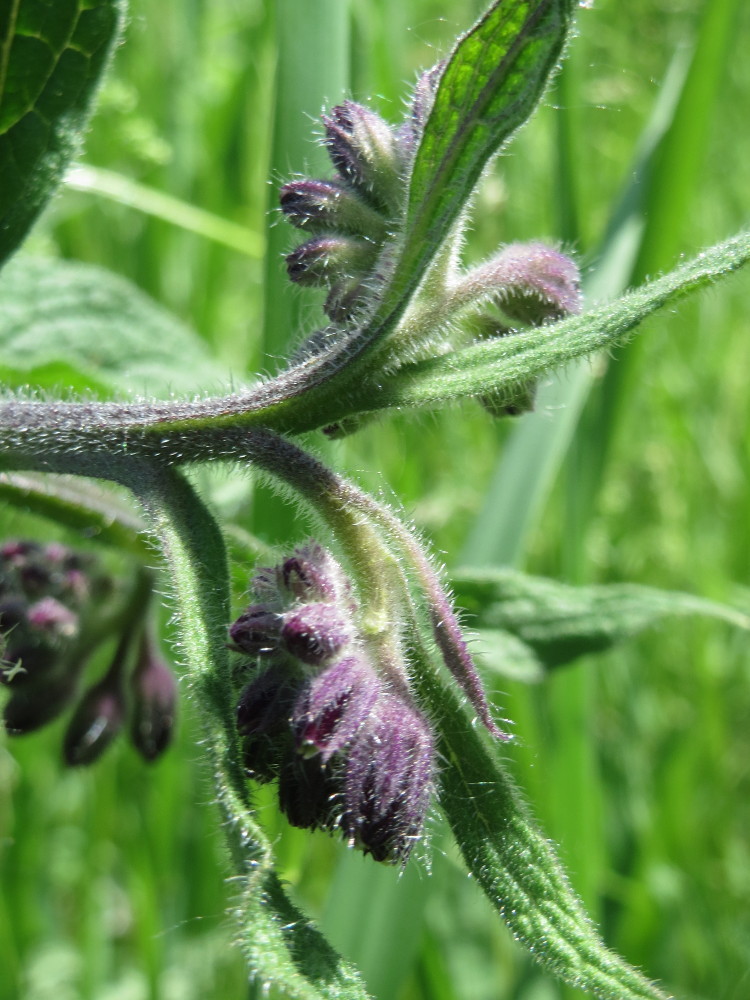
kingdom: Plantae
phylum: Tracheophyta
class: Magnoliopsida
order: Boraginales
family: Boraginaceae
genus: Symphytum
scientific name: Symphytum officinale
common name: Common comfrey
